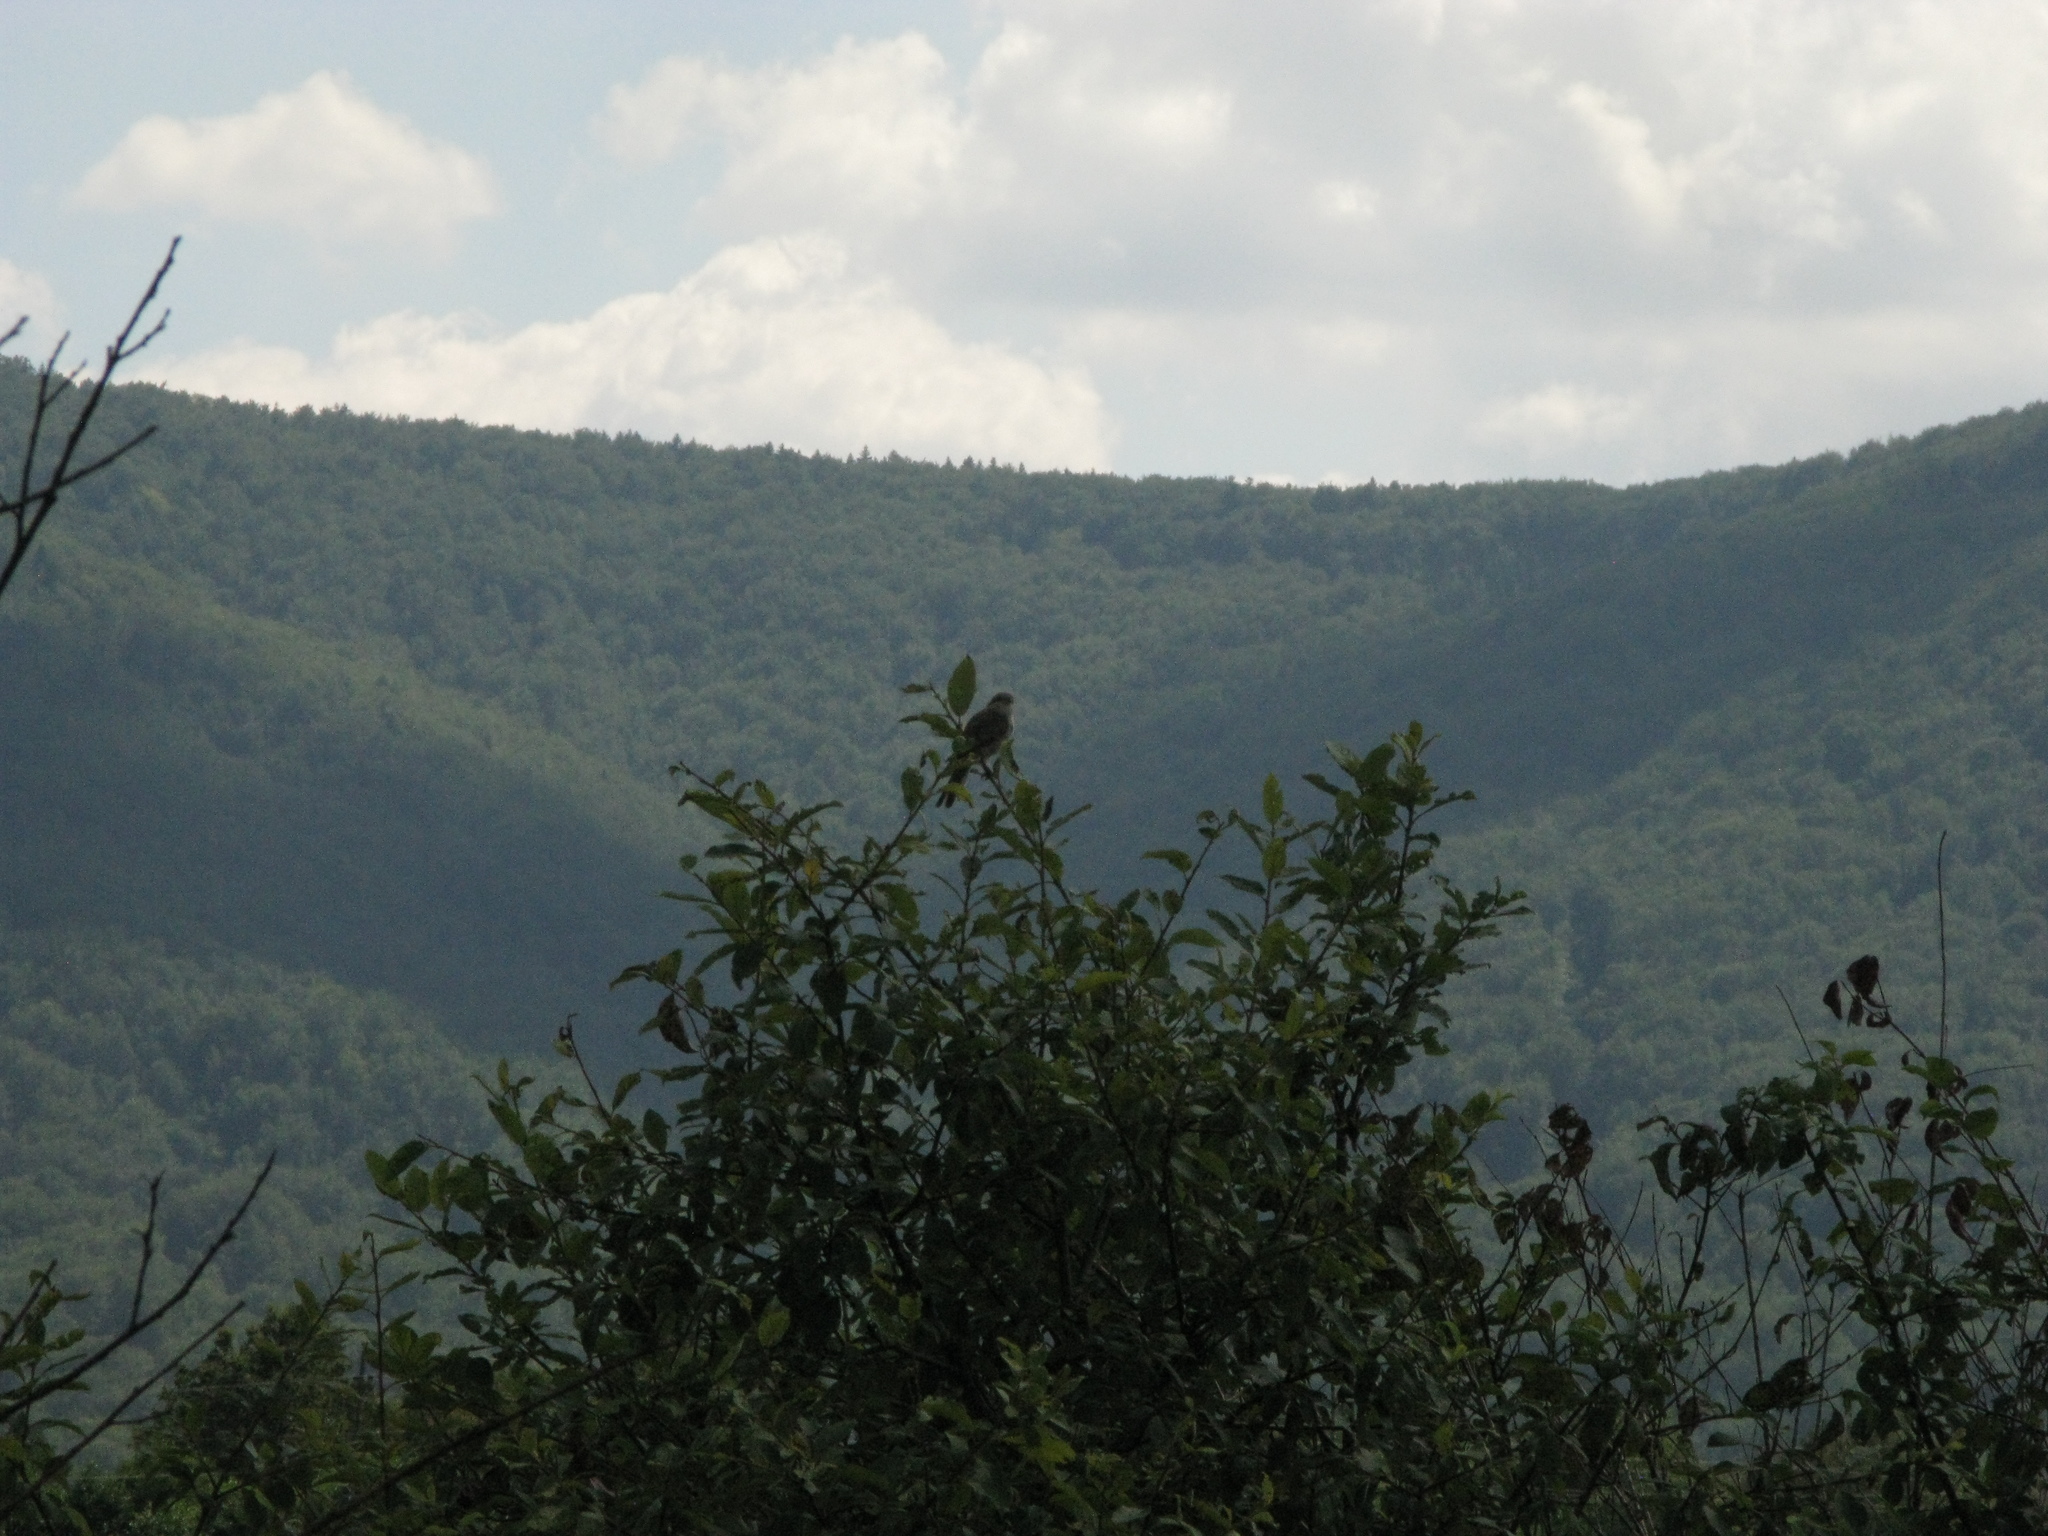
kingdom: Animalia
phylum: Chordata
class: Aves
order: Passeriformes
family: Laniidae
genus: Lanius
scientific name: Lanius collurio
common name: Red-backed shrike
